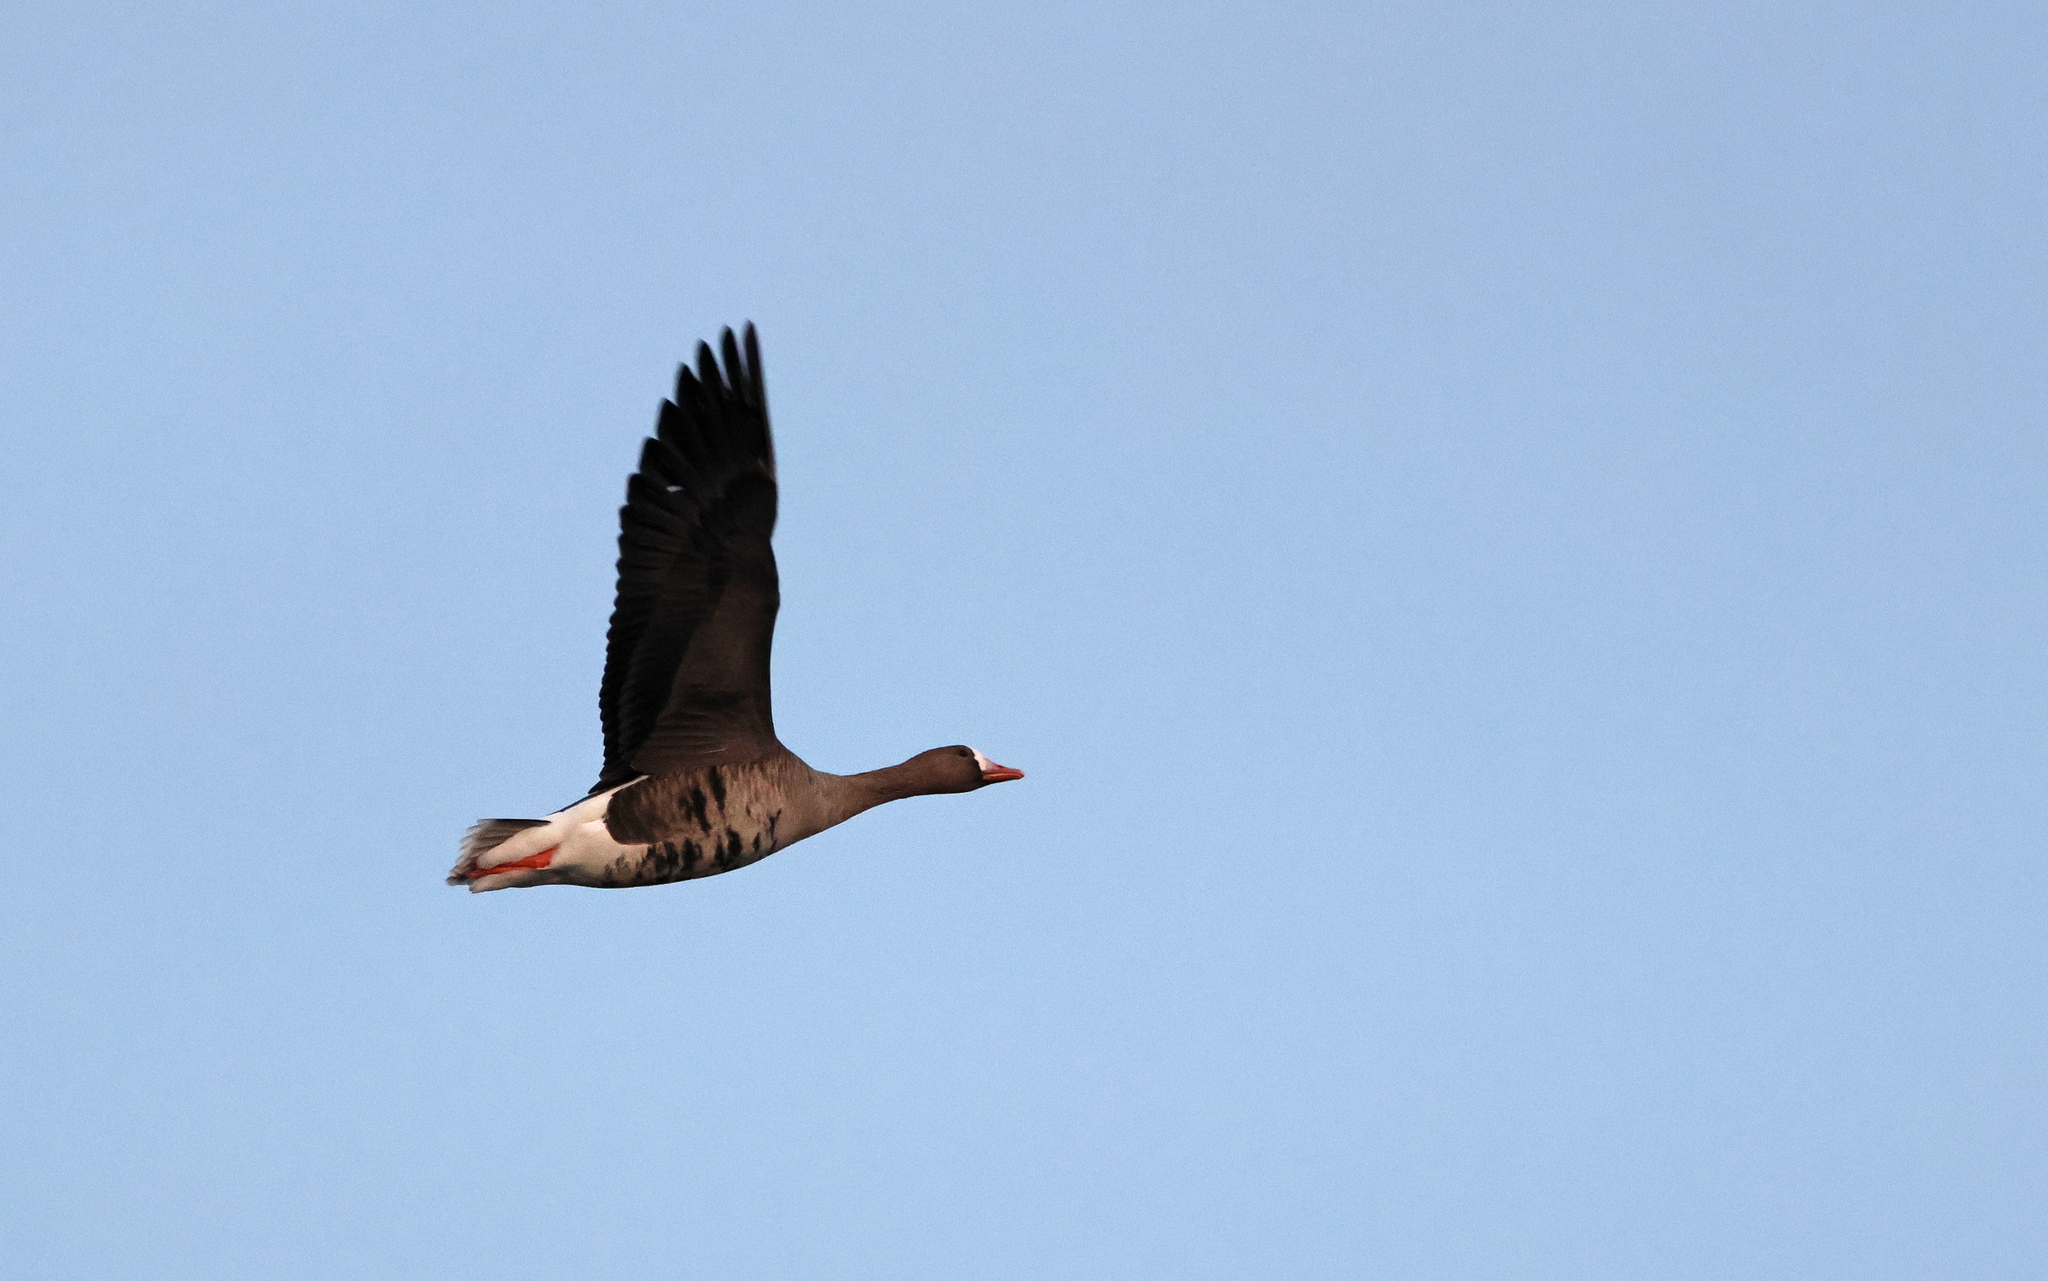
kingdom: Animalia
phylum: Chordata
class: Aves
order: Anseriformes
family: Anatidae
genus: Anser
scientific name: Anser albifrons
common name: Greater white-fronted goose
